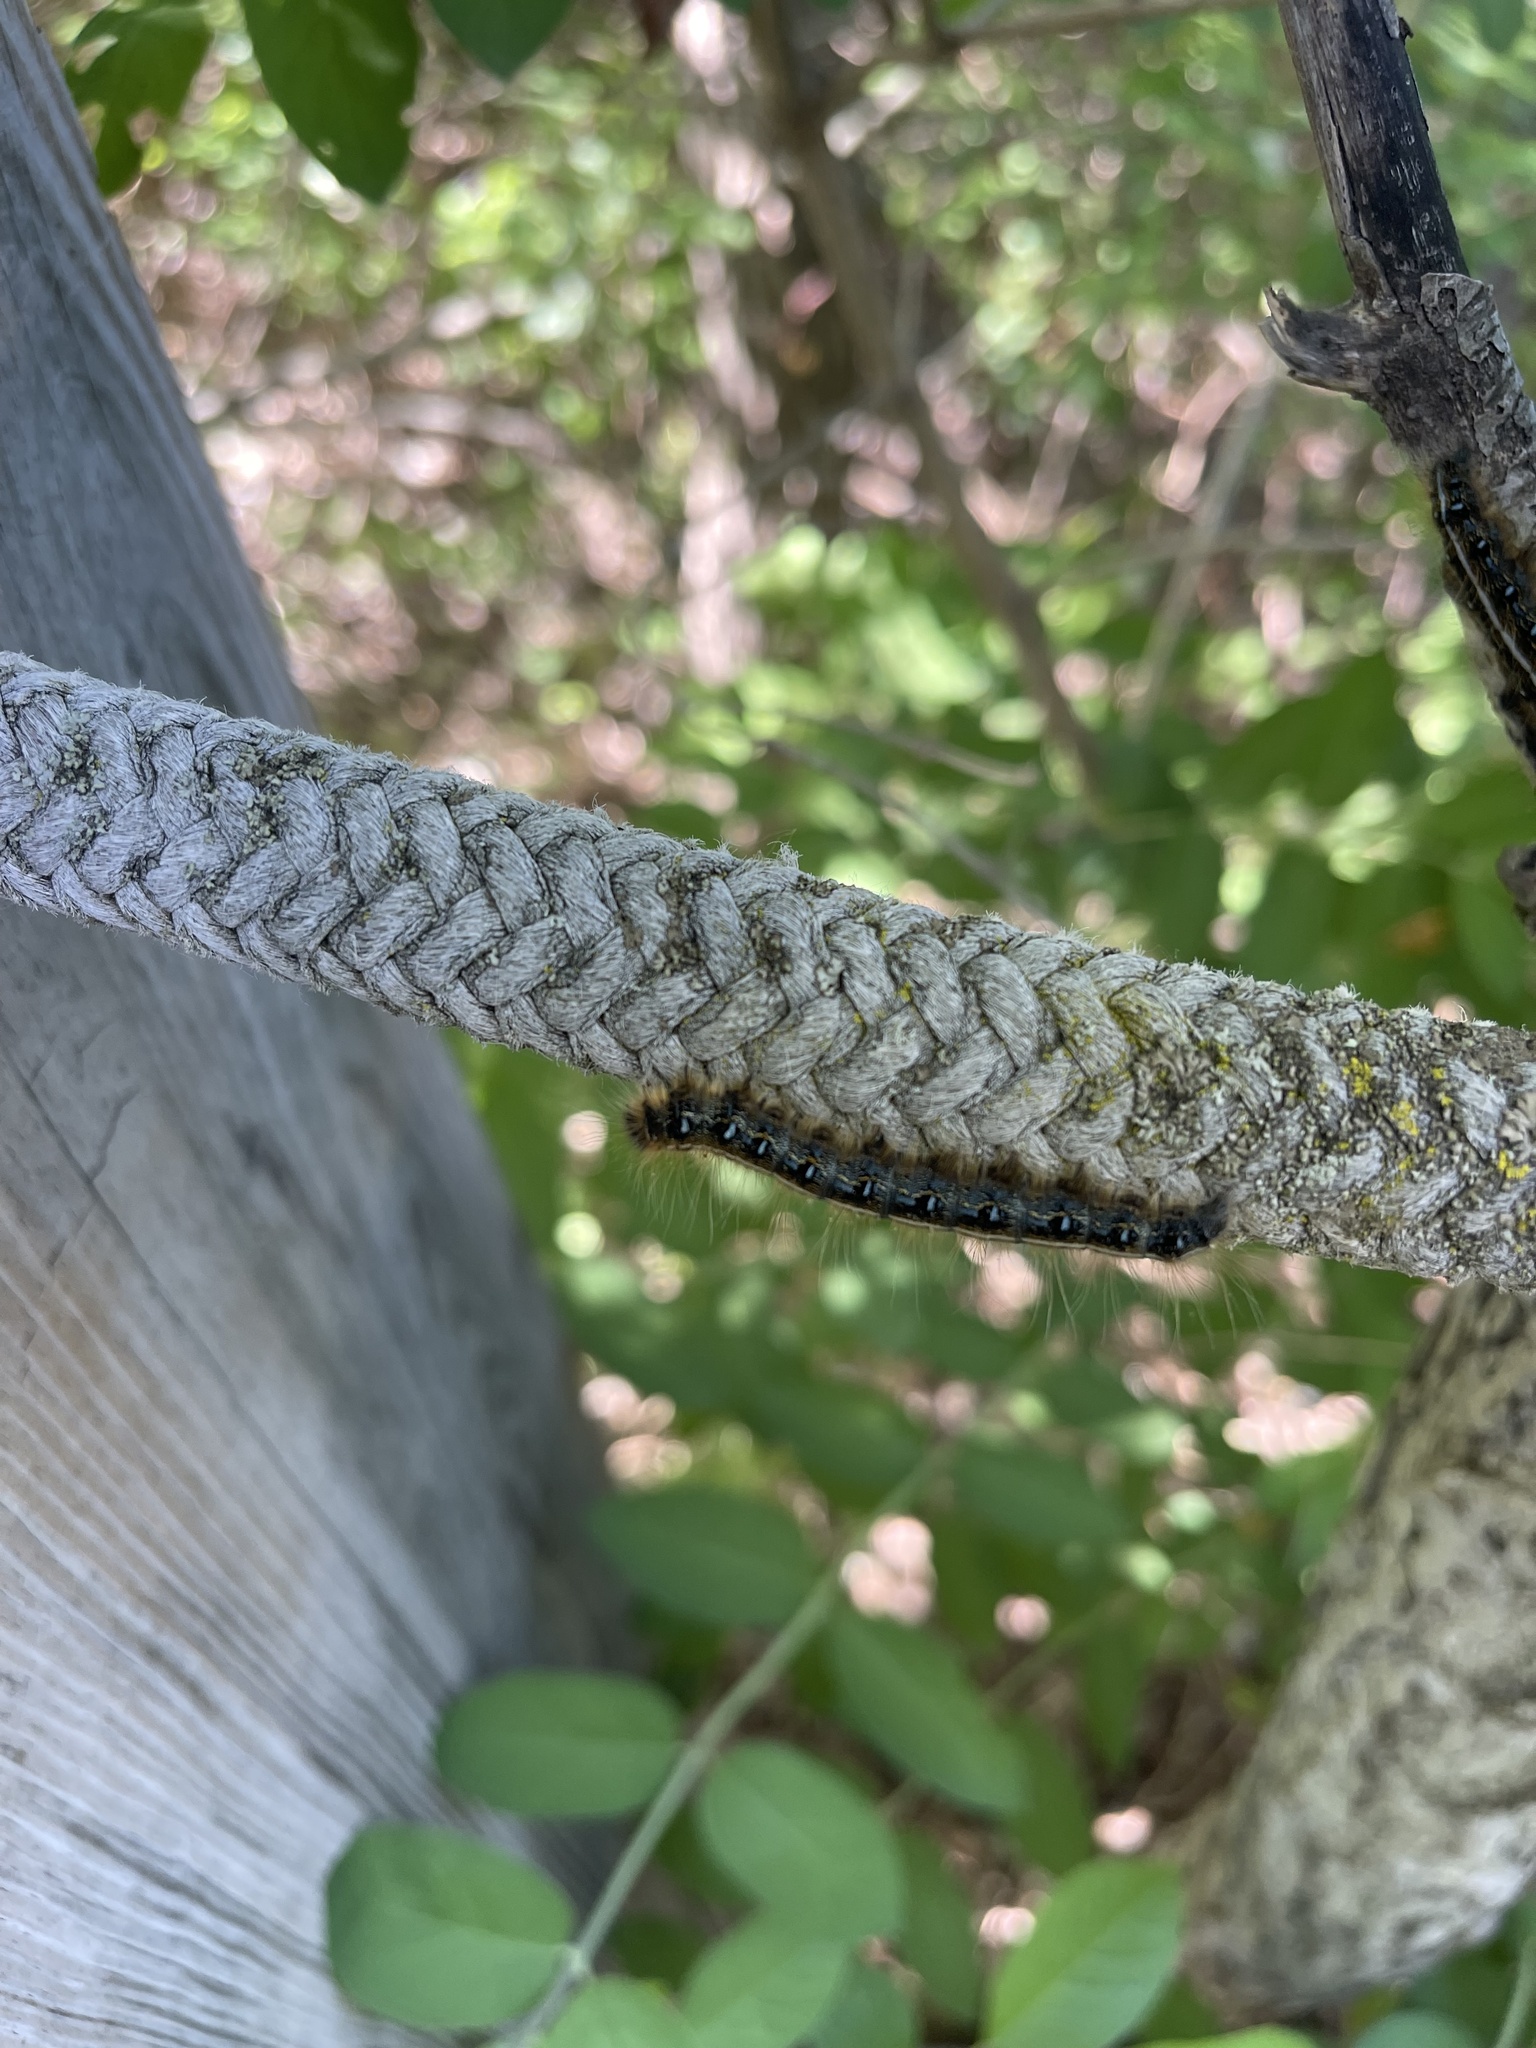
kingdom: Animalia
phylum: Arthropoda
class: Insecta
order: Lepidoptera
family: Lasiocampidae
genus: Malacosoma
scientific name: Malacosoma americana
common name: Eastern tent caterpillar moth
